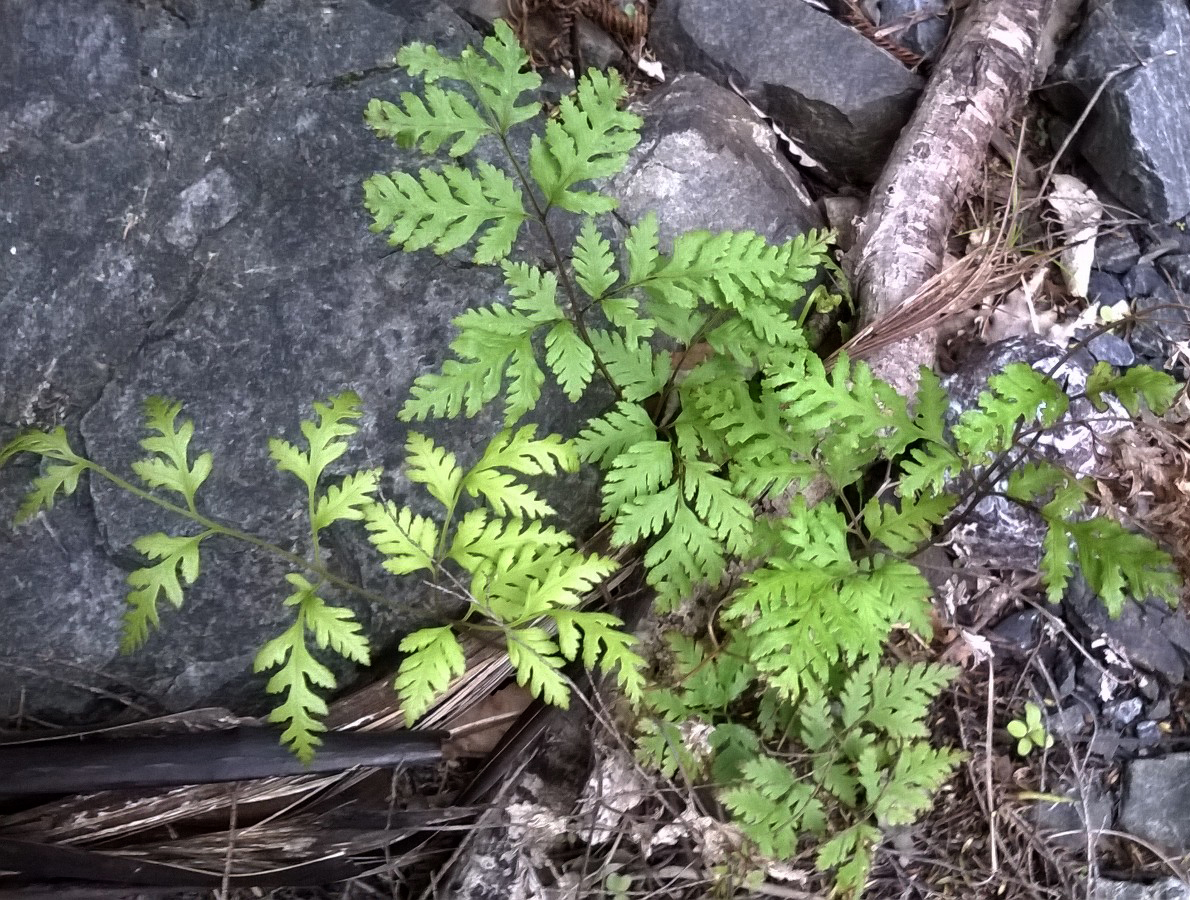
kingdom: Plantae
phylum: Tracheophyta
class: Polypodiopsida
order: Polypodiales
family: Pteridaceae
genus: Pteris
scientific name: Pteris macilenta
